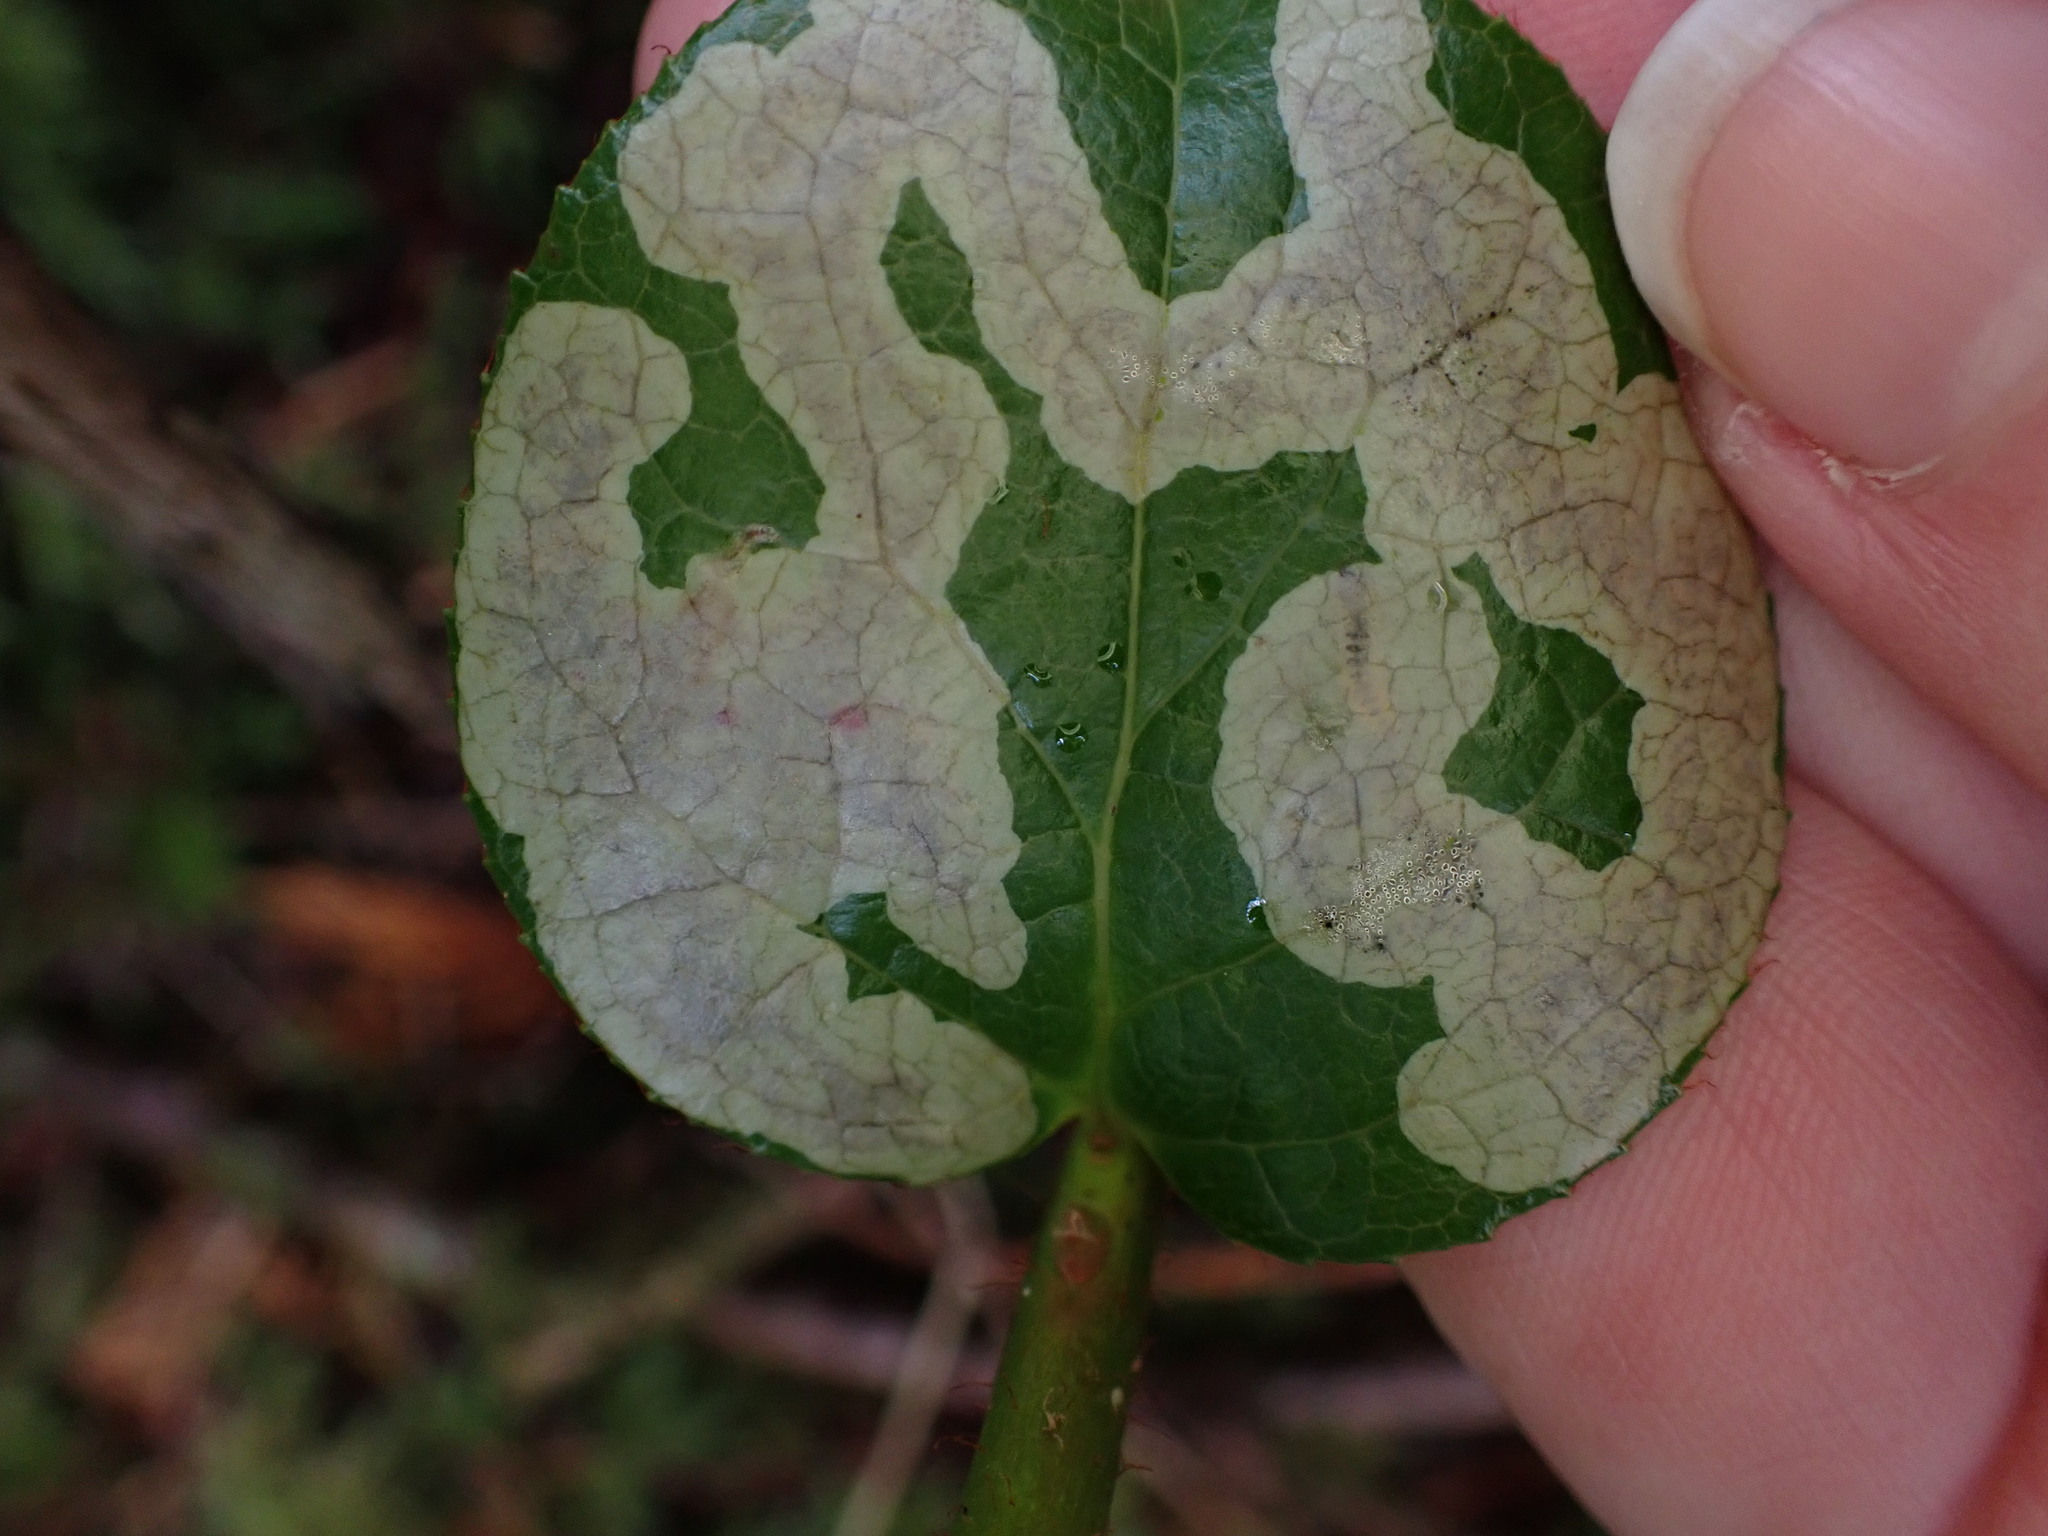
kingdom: Animalia
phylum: Arthropoda
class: Insecta
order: Lepidoptera
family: Gracillariidae
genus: Cameraria
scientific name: Cameraria gaultheriella
